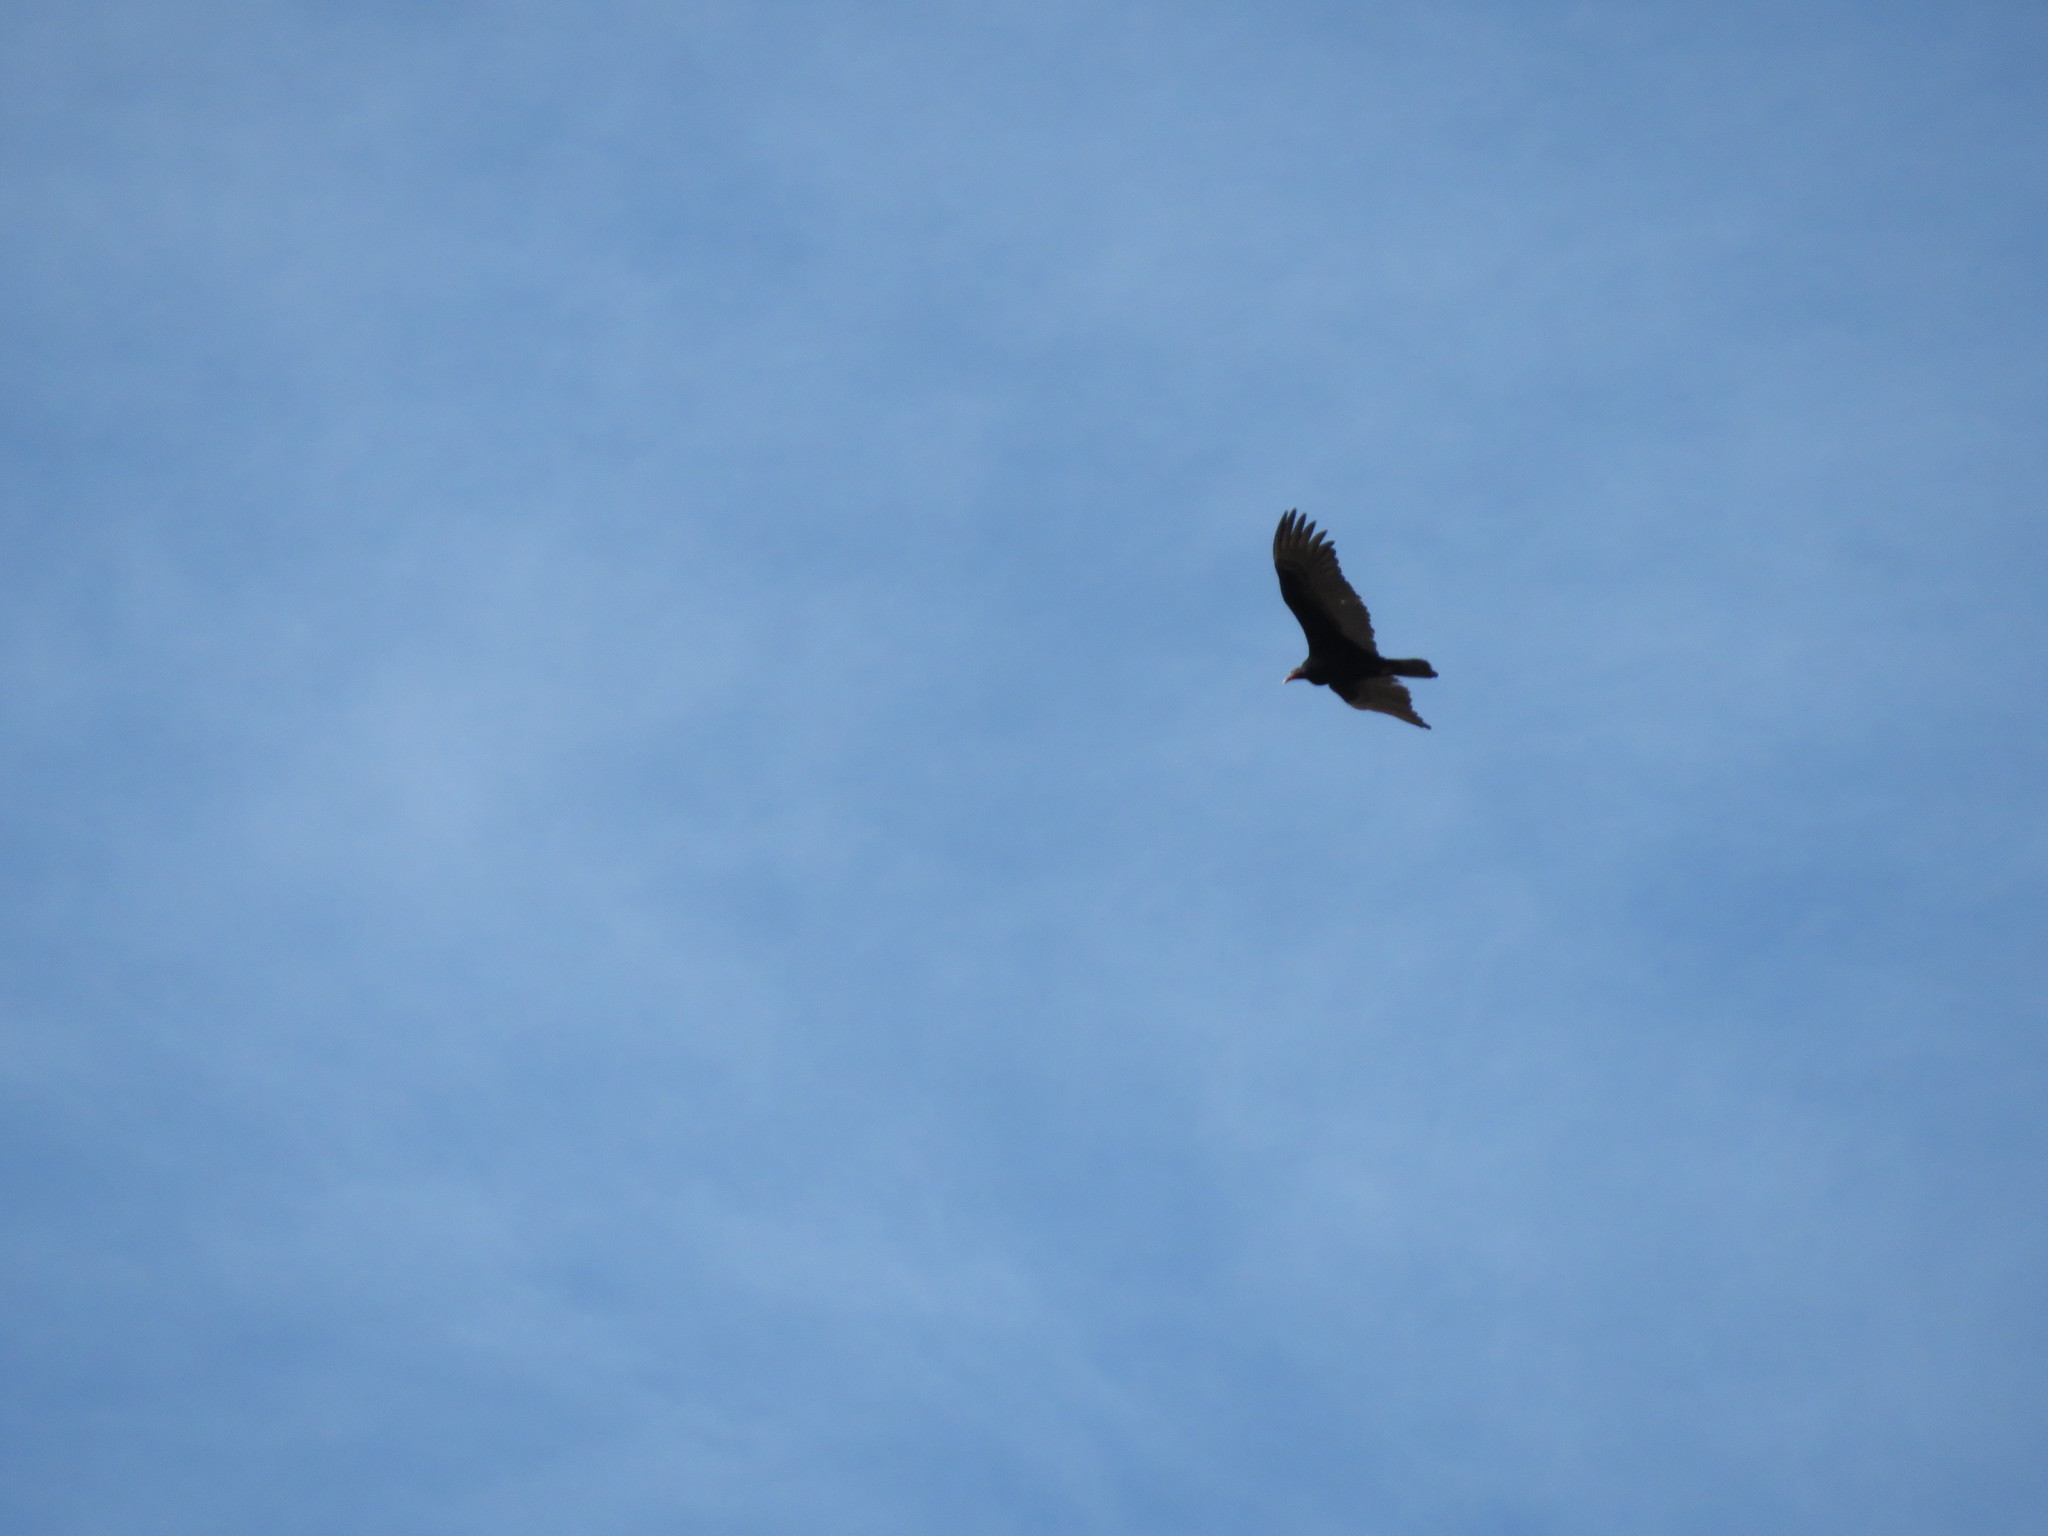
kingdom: Animalia
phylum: Chordata
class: Aves
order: Accipitriformes
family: Cathartidae
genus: Cathartes
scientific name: Cathartes aura
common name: Turkey vulture
